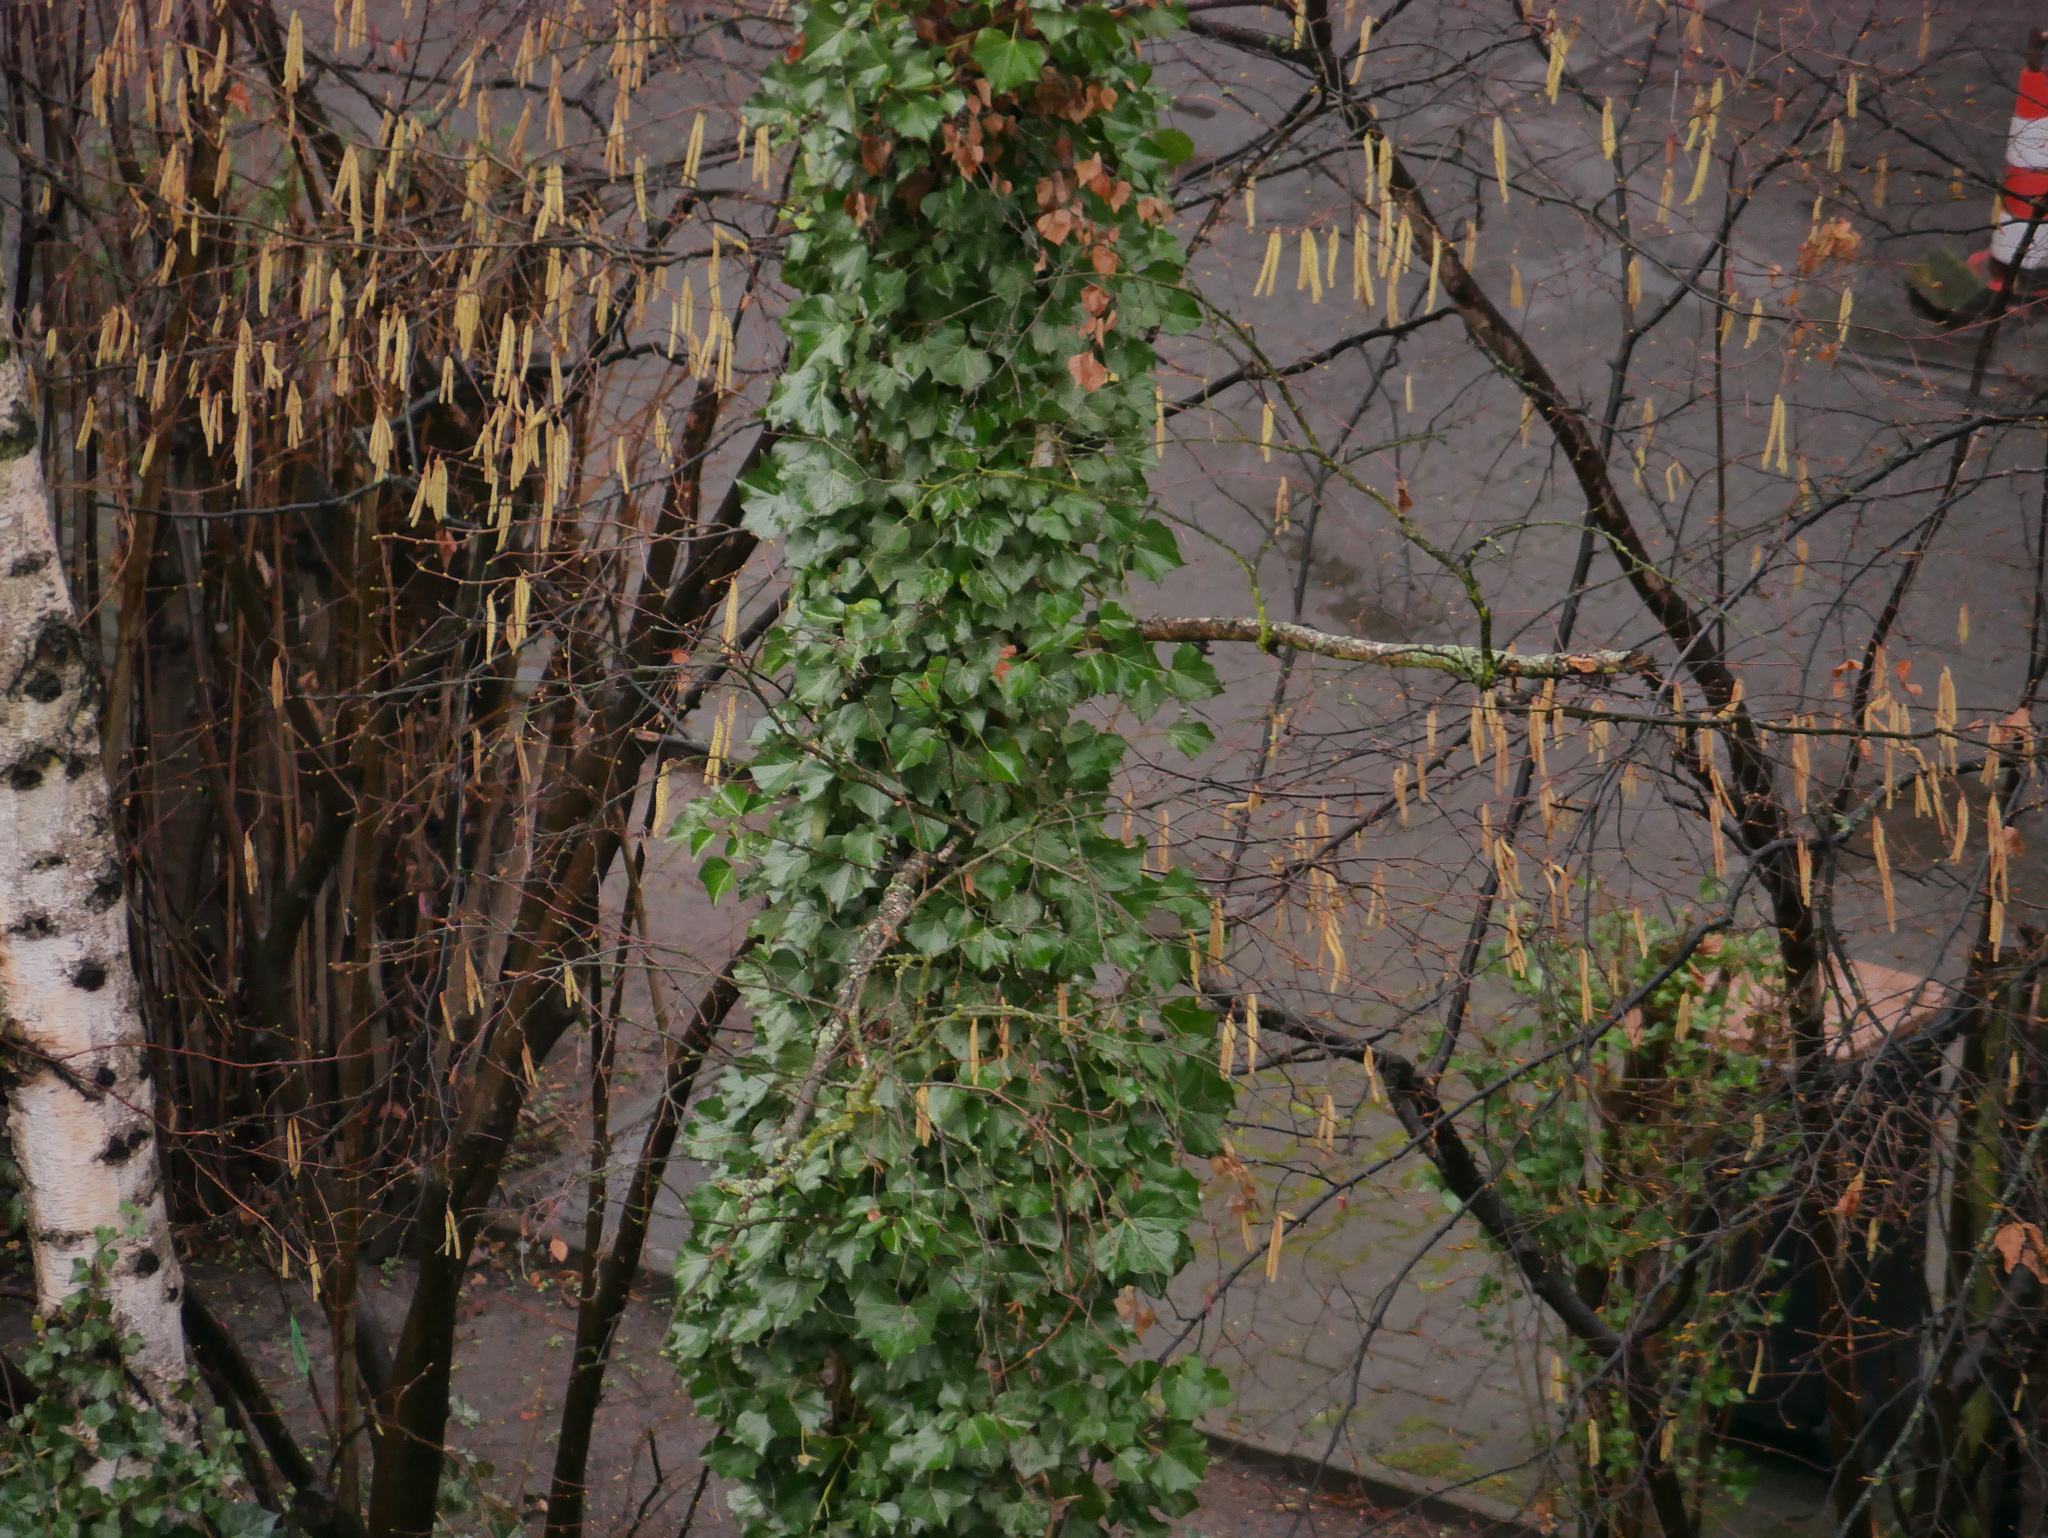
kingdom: Plantae
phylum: Tracheophyta
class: Magnoliopsida
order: Apiales
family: Araliaceae
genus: Hedera
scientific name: Hedera helix
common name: Ivy
